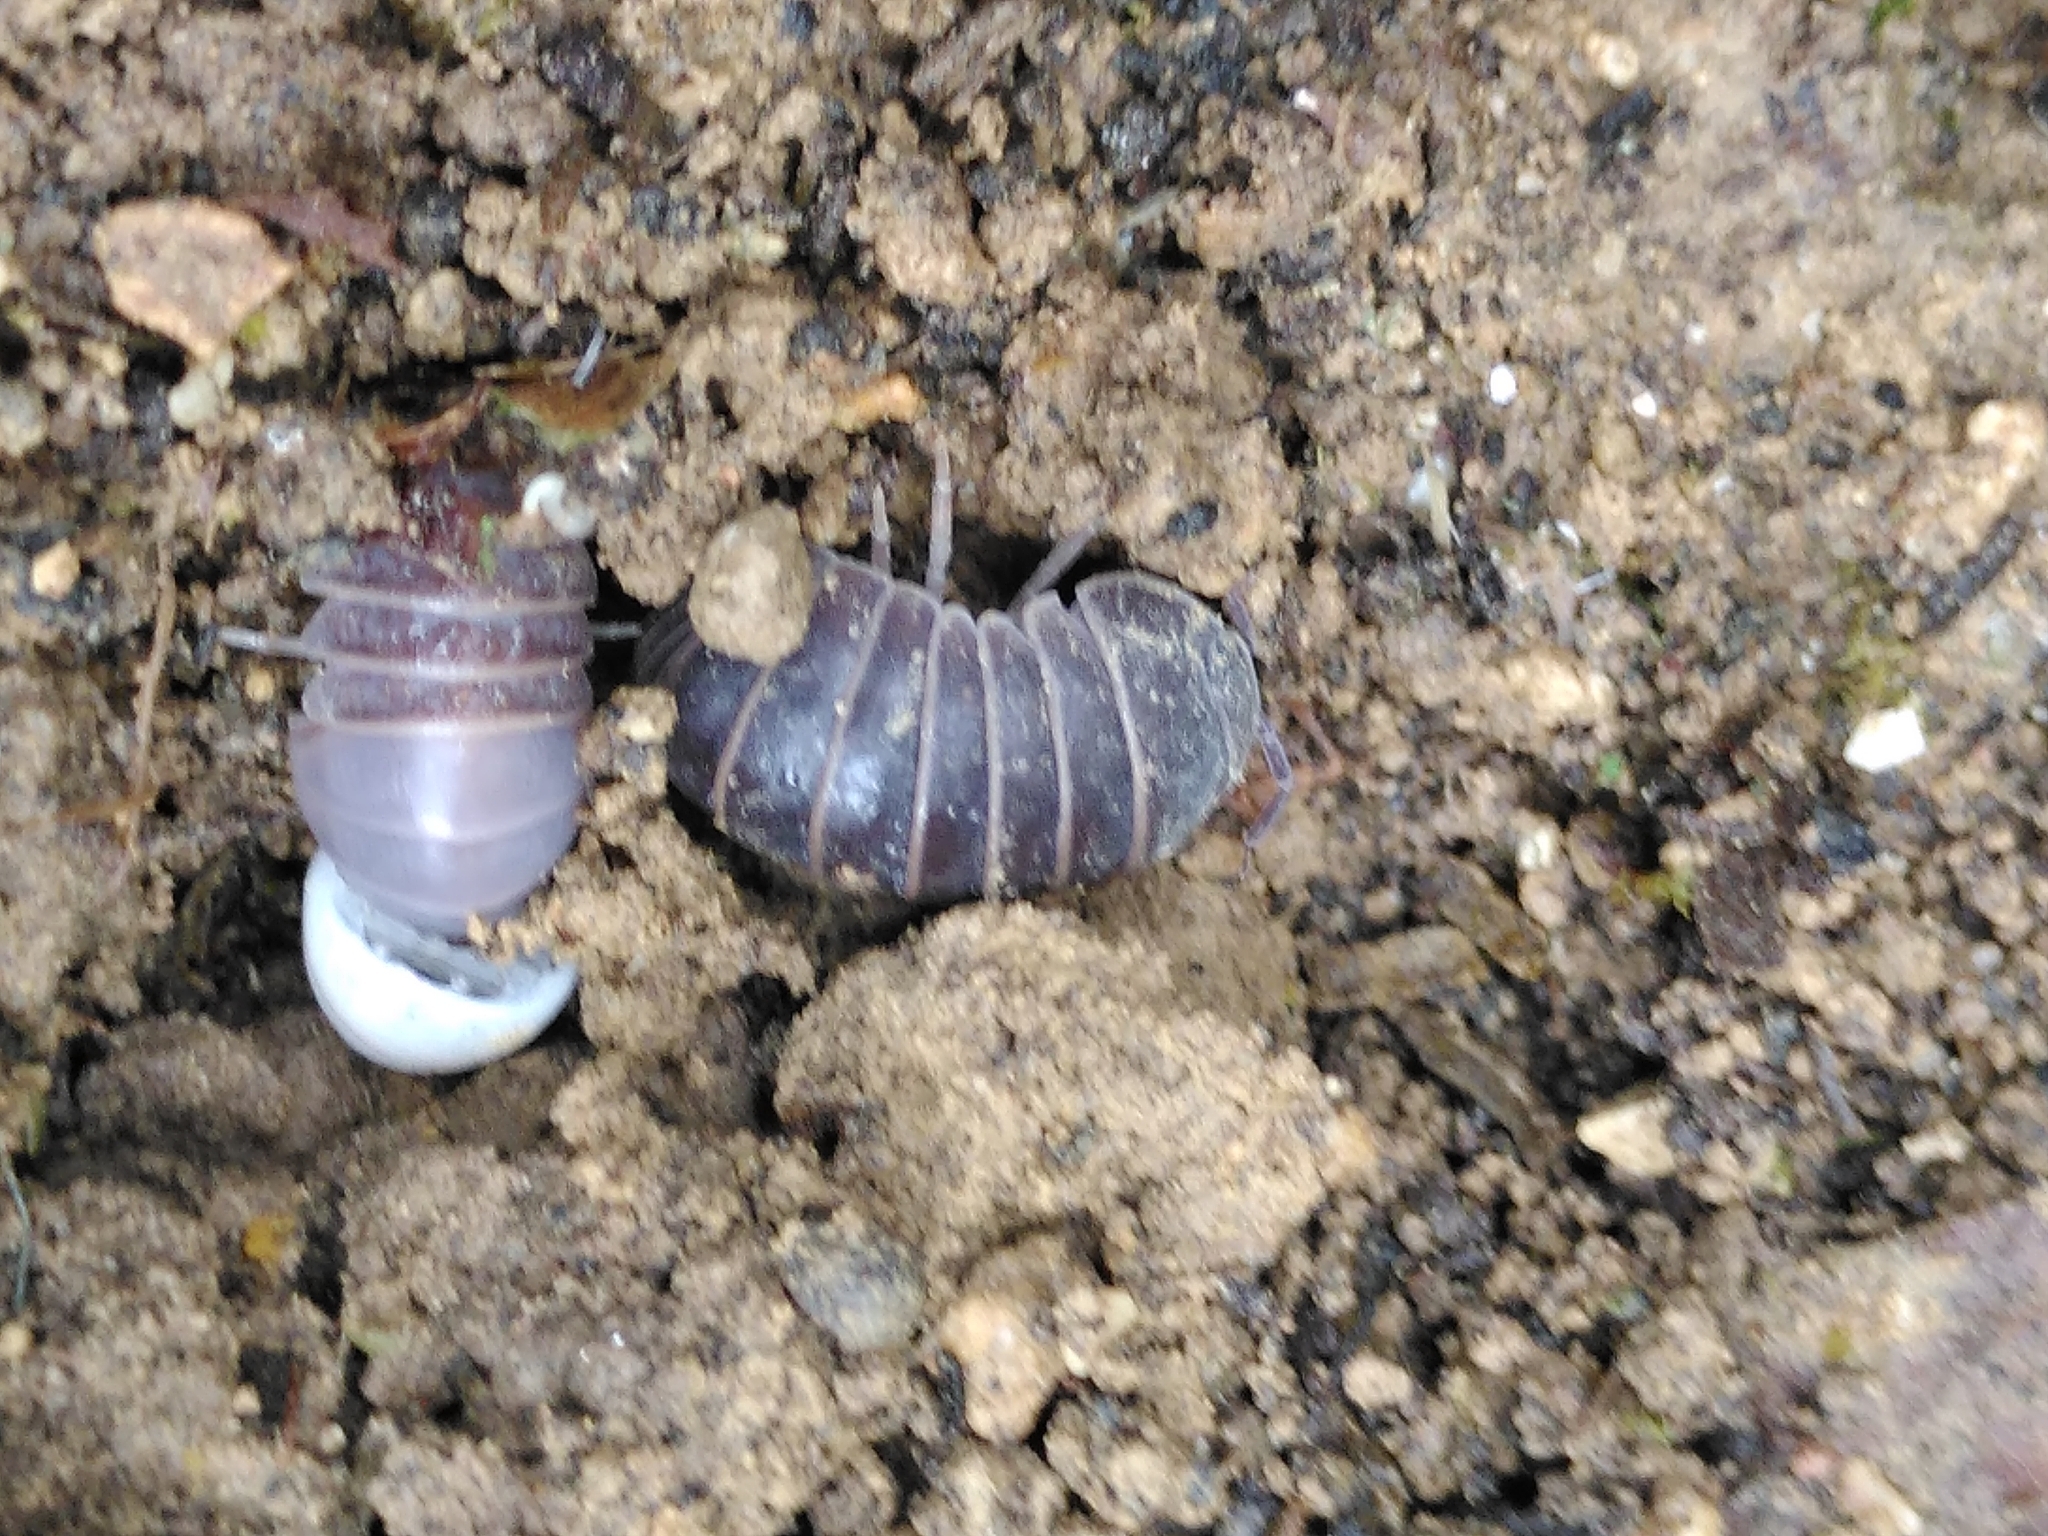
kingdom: Animalia
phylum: Arthropoda
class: Malacostraca
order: Isopoda
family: Armadillidae
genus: Armadillo
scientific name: Armadillo officinalis
